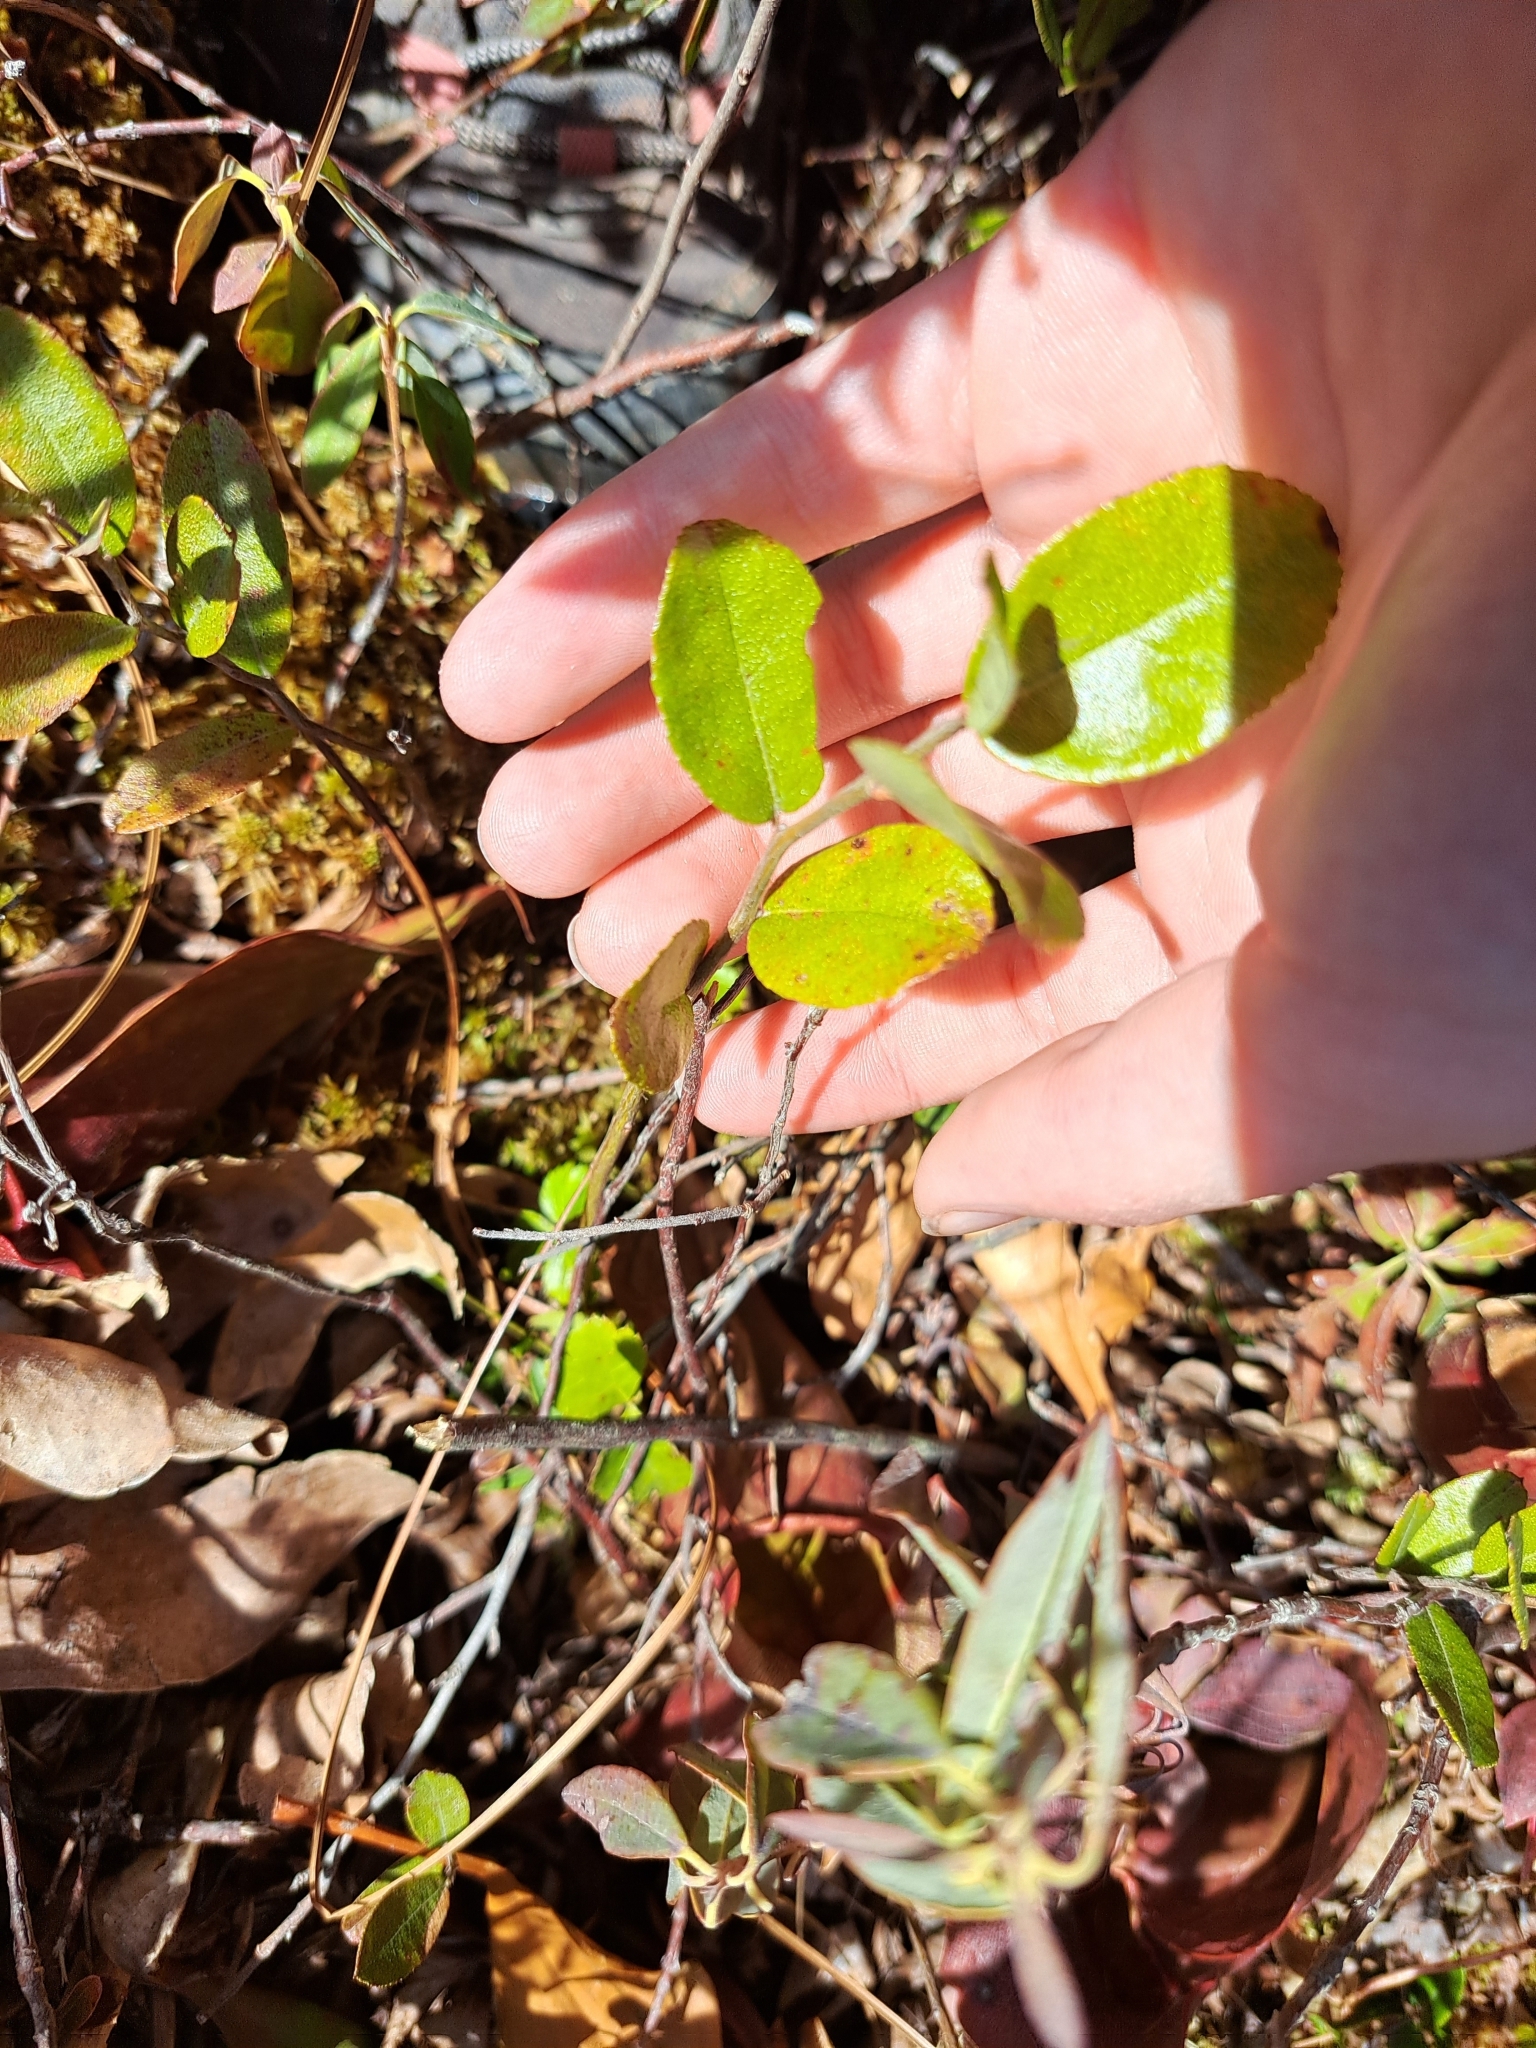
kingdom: Plantae
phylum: Tracheophyta
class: Magnoliopsida
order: Ericales
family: Ericaceae
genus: Chamaedaphne
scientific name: Chamaedaphne calyculata
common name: Leatherleaf
